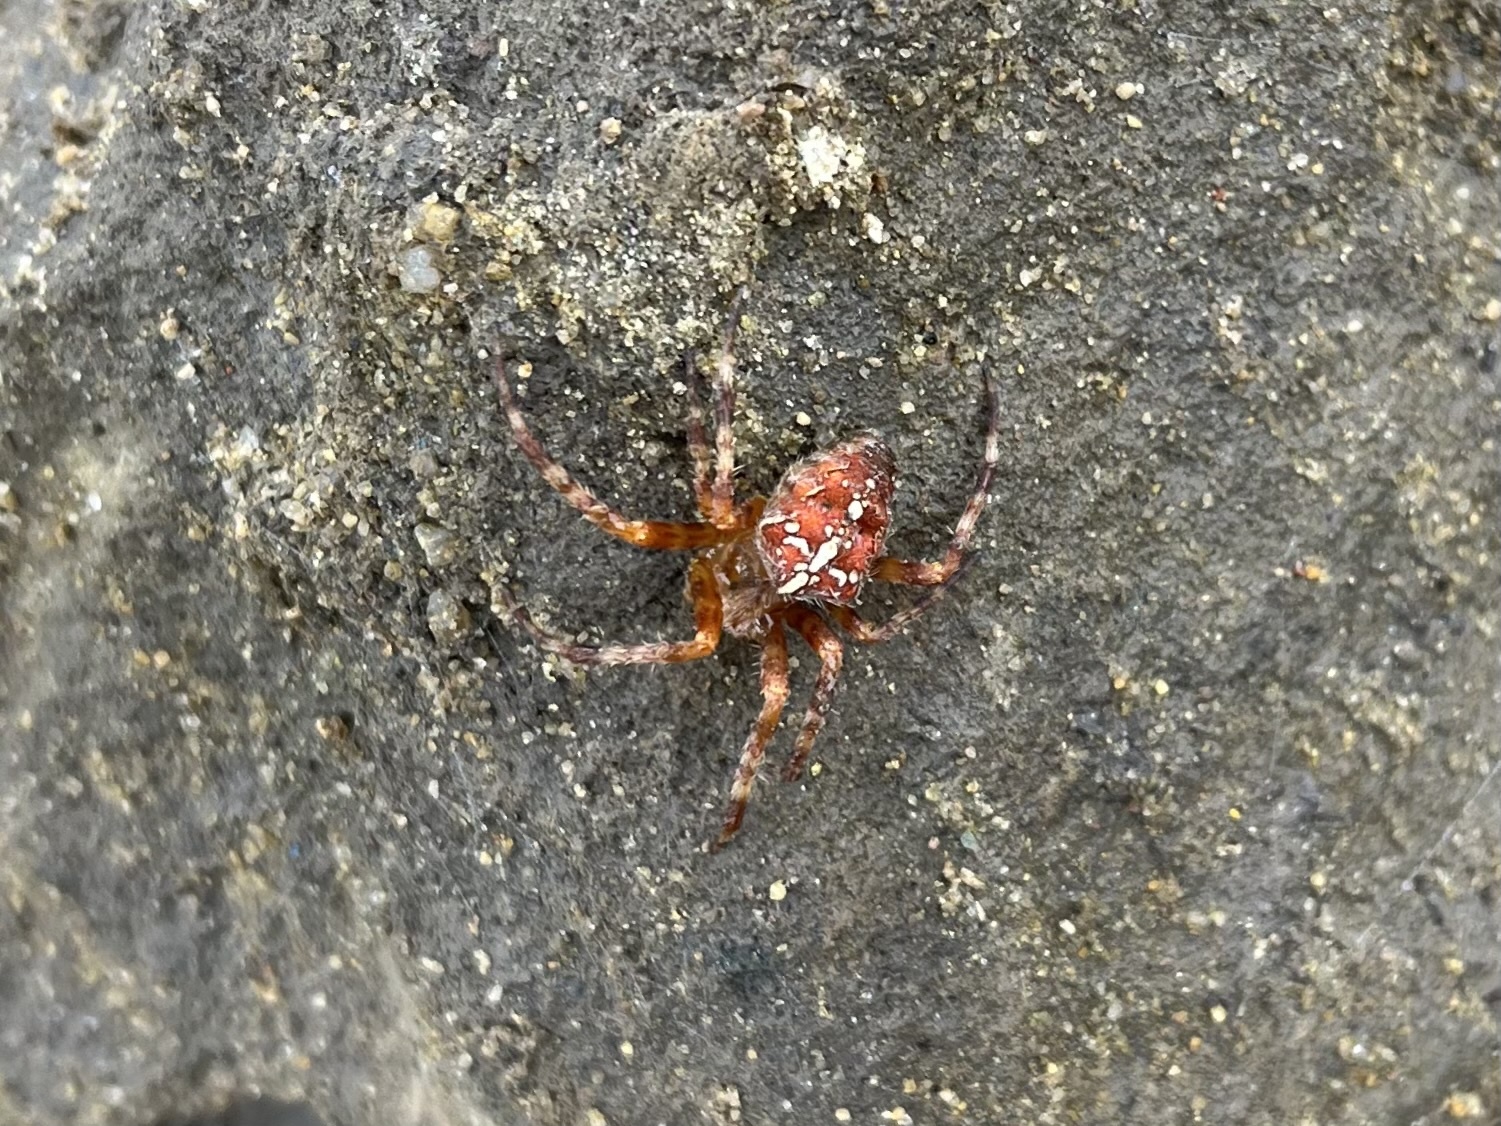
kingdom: Animalia
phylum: Arthropoda
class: Arachnida
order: Araneae
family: Araneidae
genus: Araneus
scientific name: Araneus diadematus
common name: Cross orbweaver
